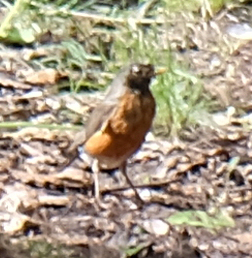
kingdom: Animalia
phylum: Chordata
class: Aves
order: Passeriformes
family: Turdidae
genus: Turdus
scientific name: Turdus migratorius
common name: American robin
